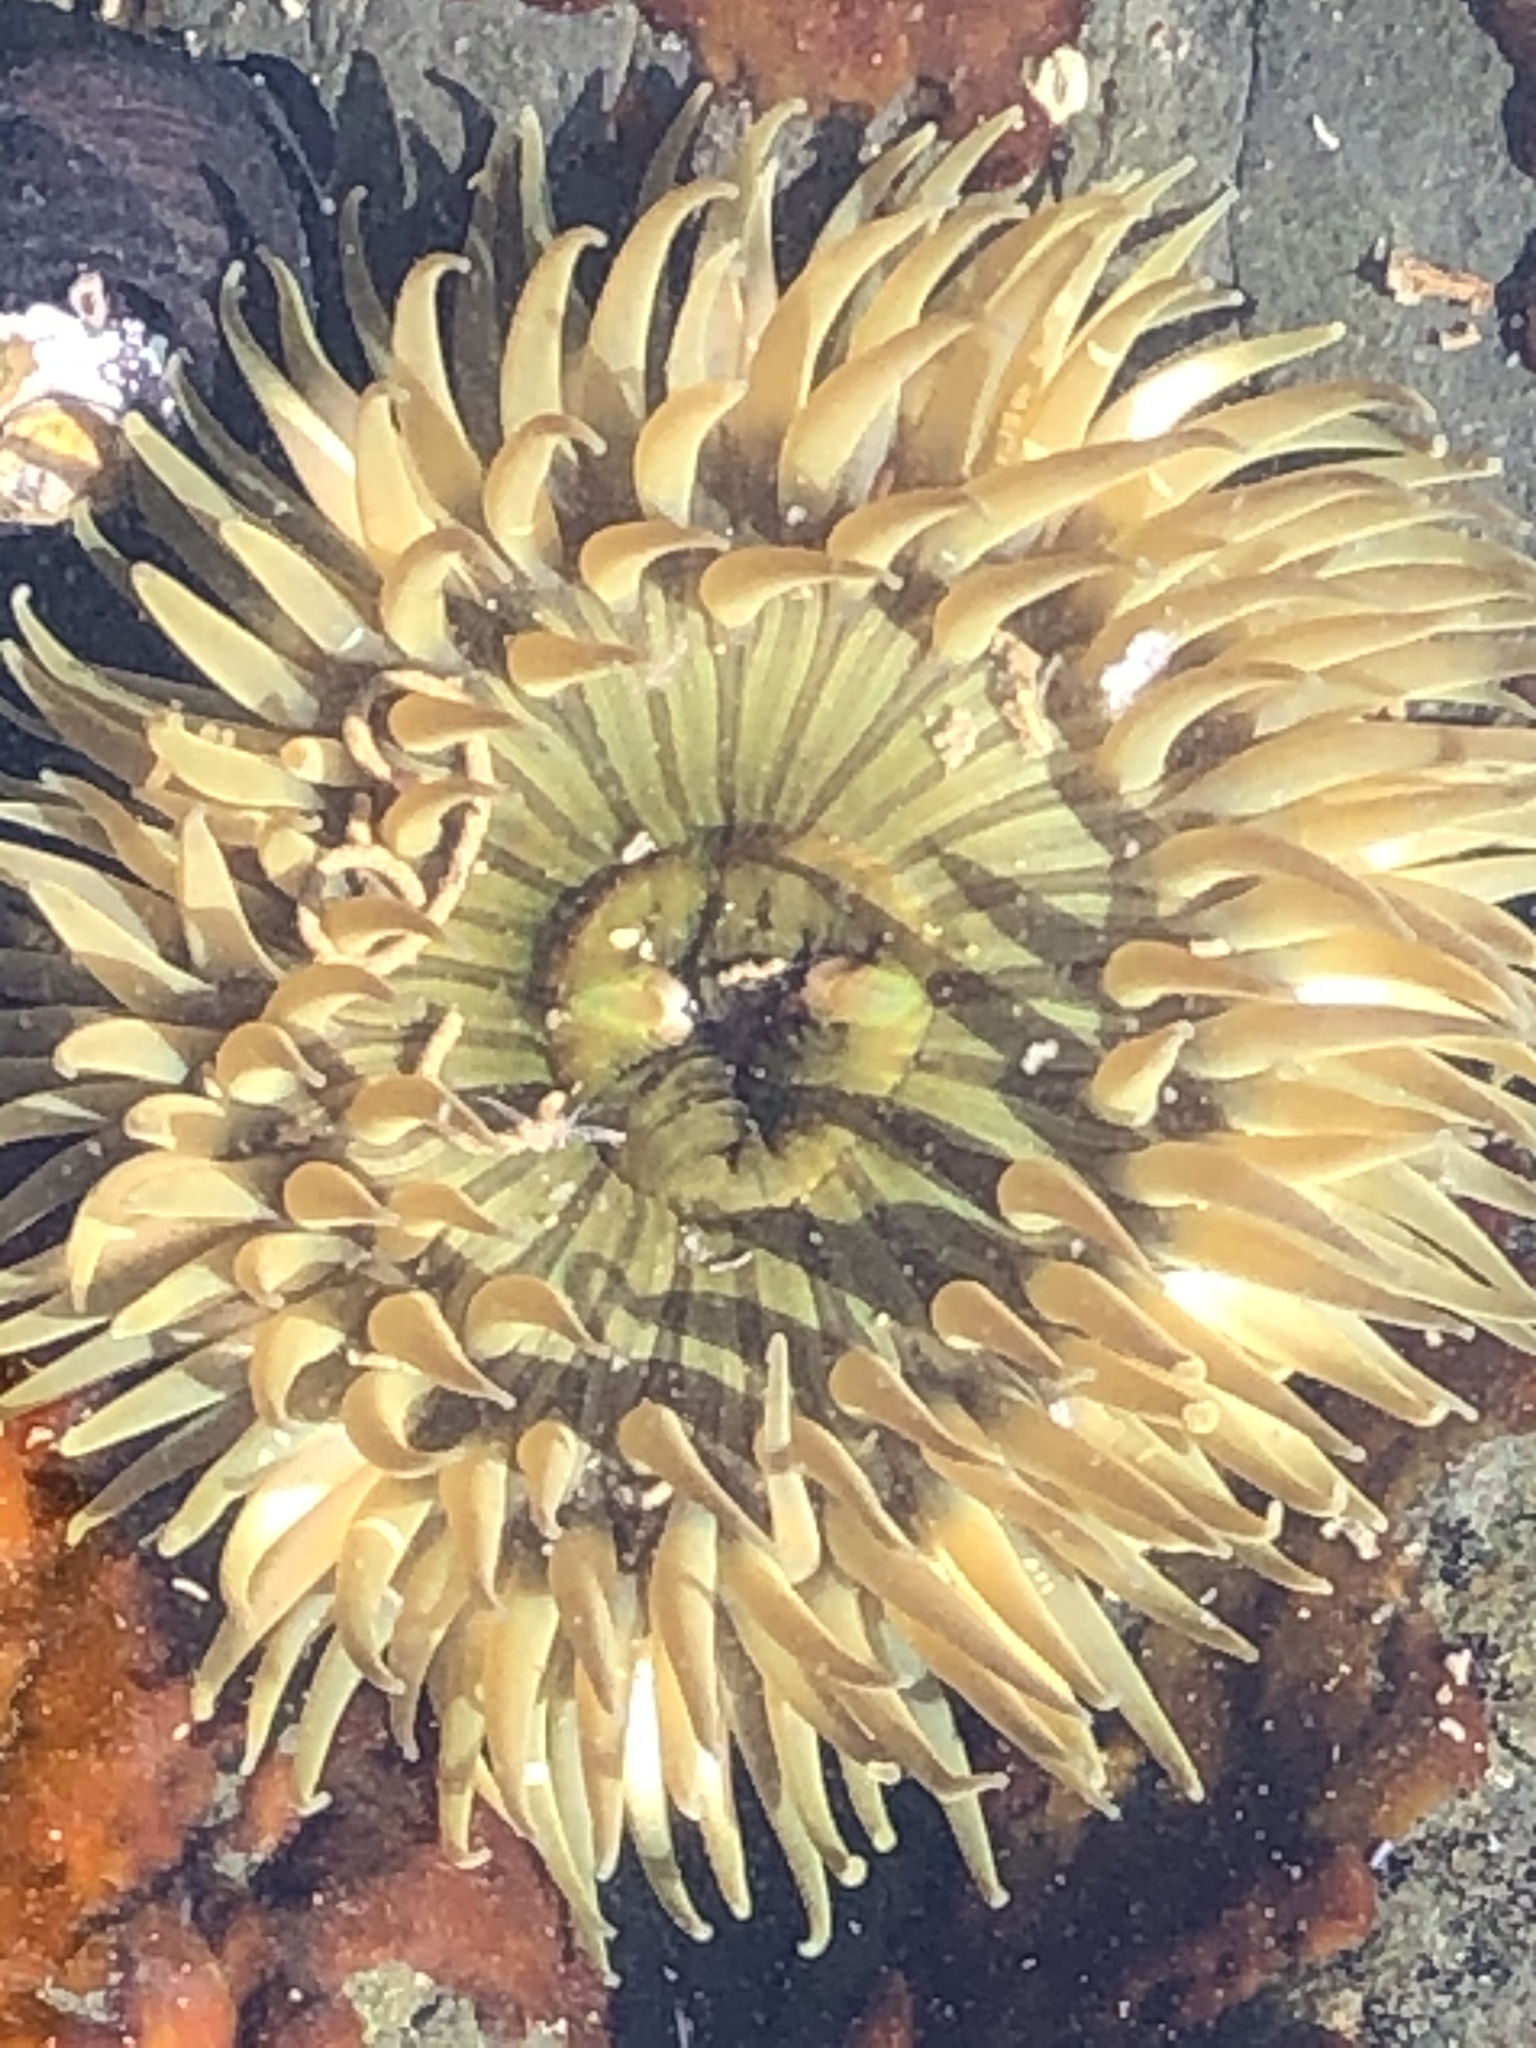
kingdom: Animalia
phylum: Cnidaria
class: Anthozoa
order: Actiniaria
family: Actiniidae
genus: Anthopleura
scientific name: Anthopleura sola
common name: Sun anemone
